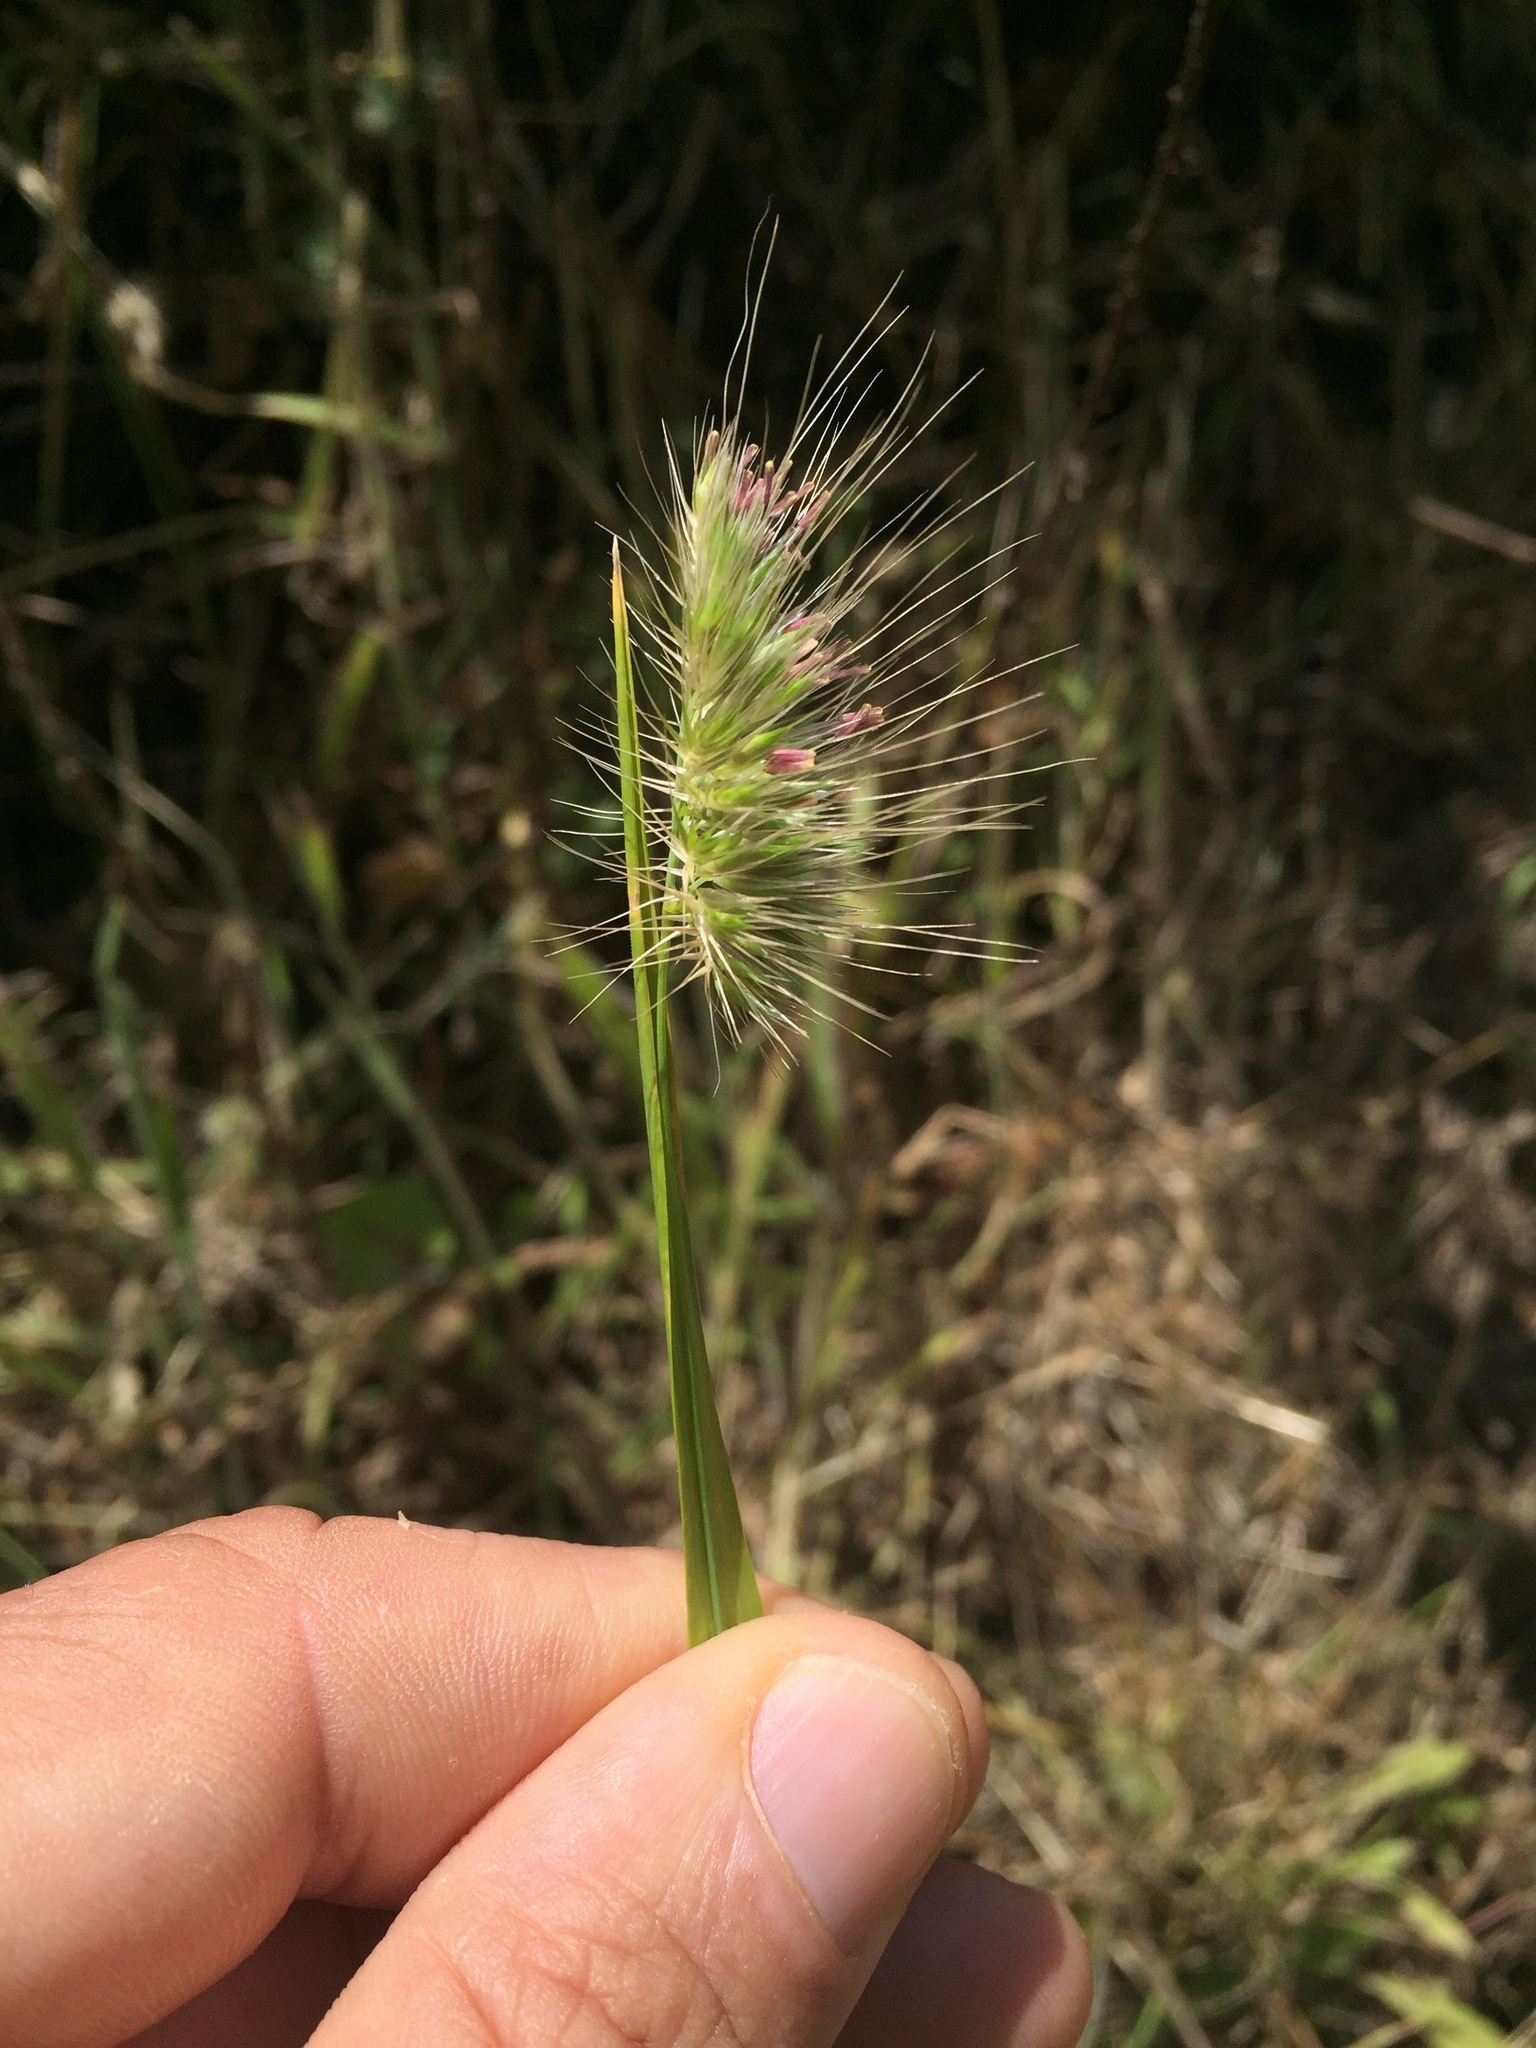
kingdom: Plantae
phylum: Tracheophyta
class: Liliopsida
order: Poales
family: Poaceae
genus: Cynosurus
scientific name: Cynosurus echinatus
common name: Rough dog's-tail
